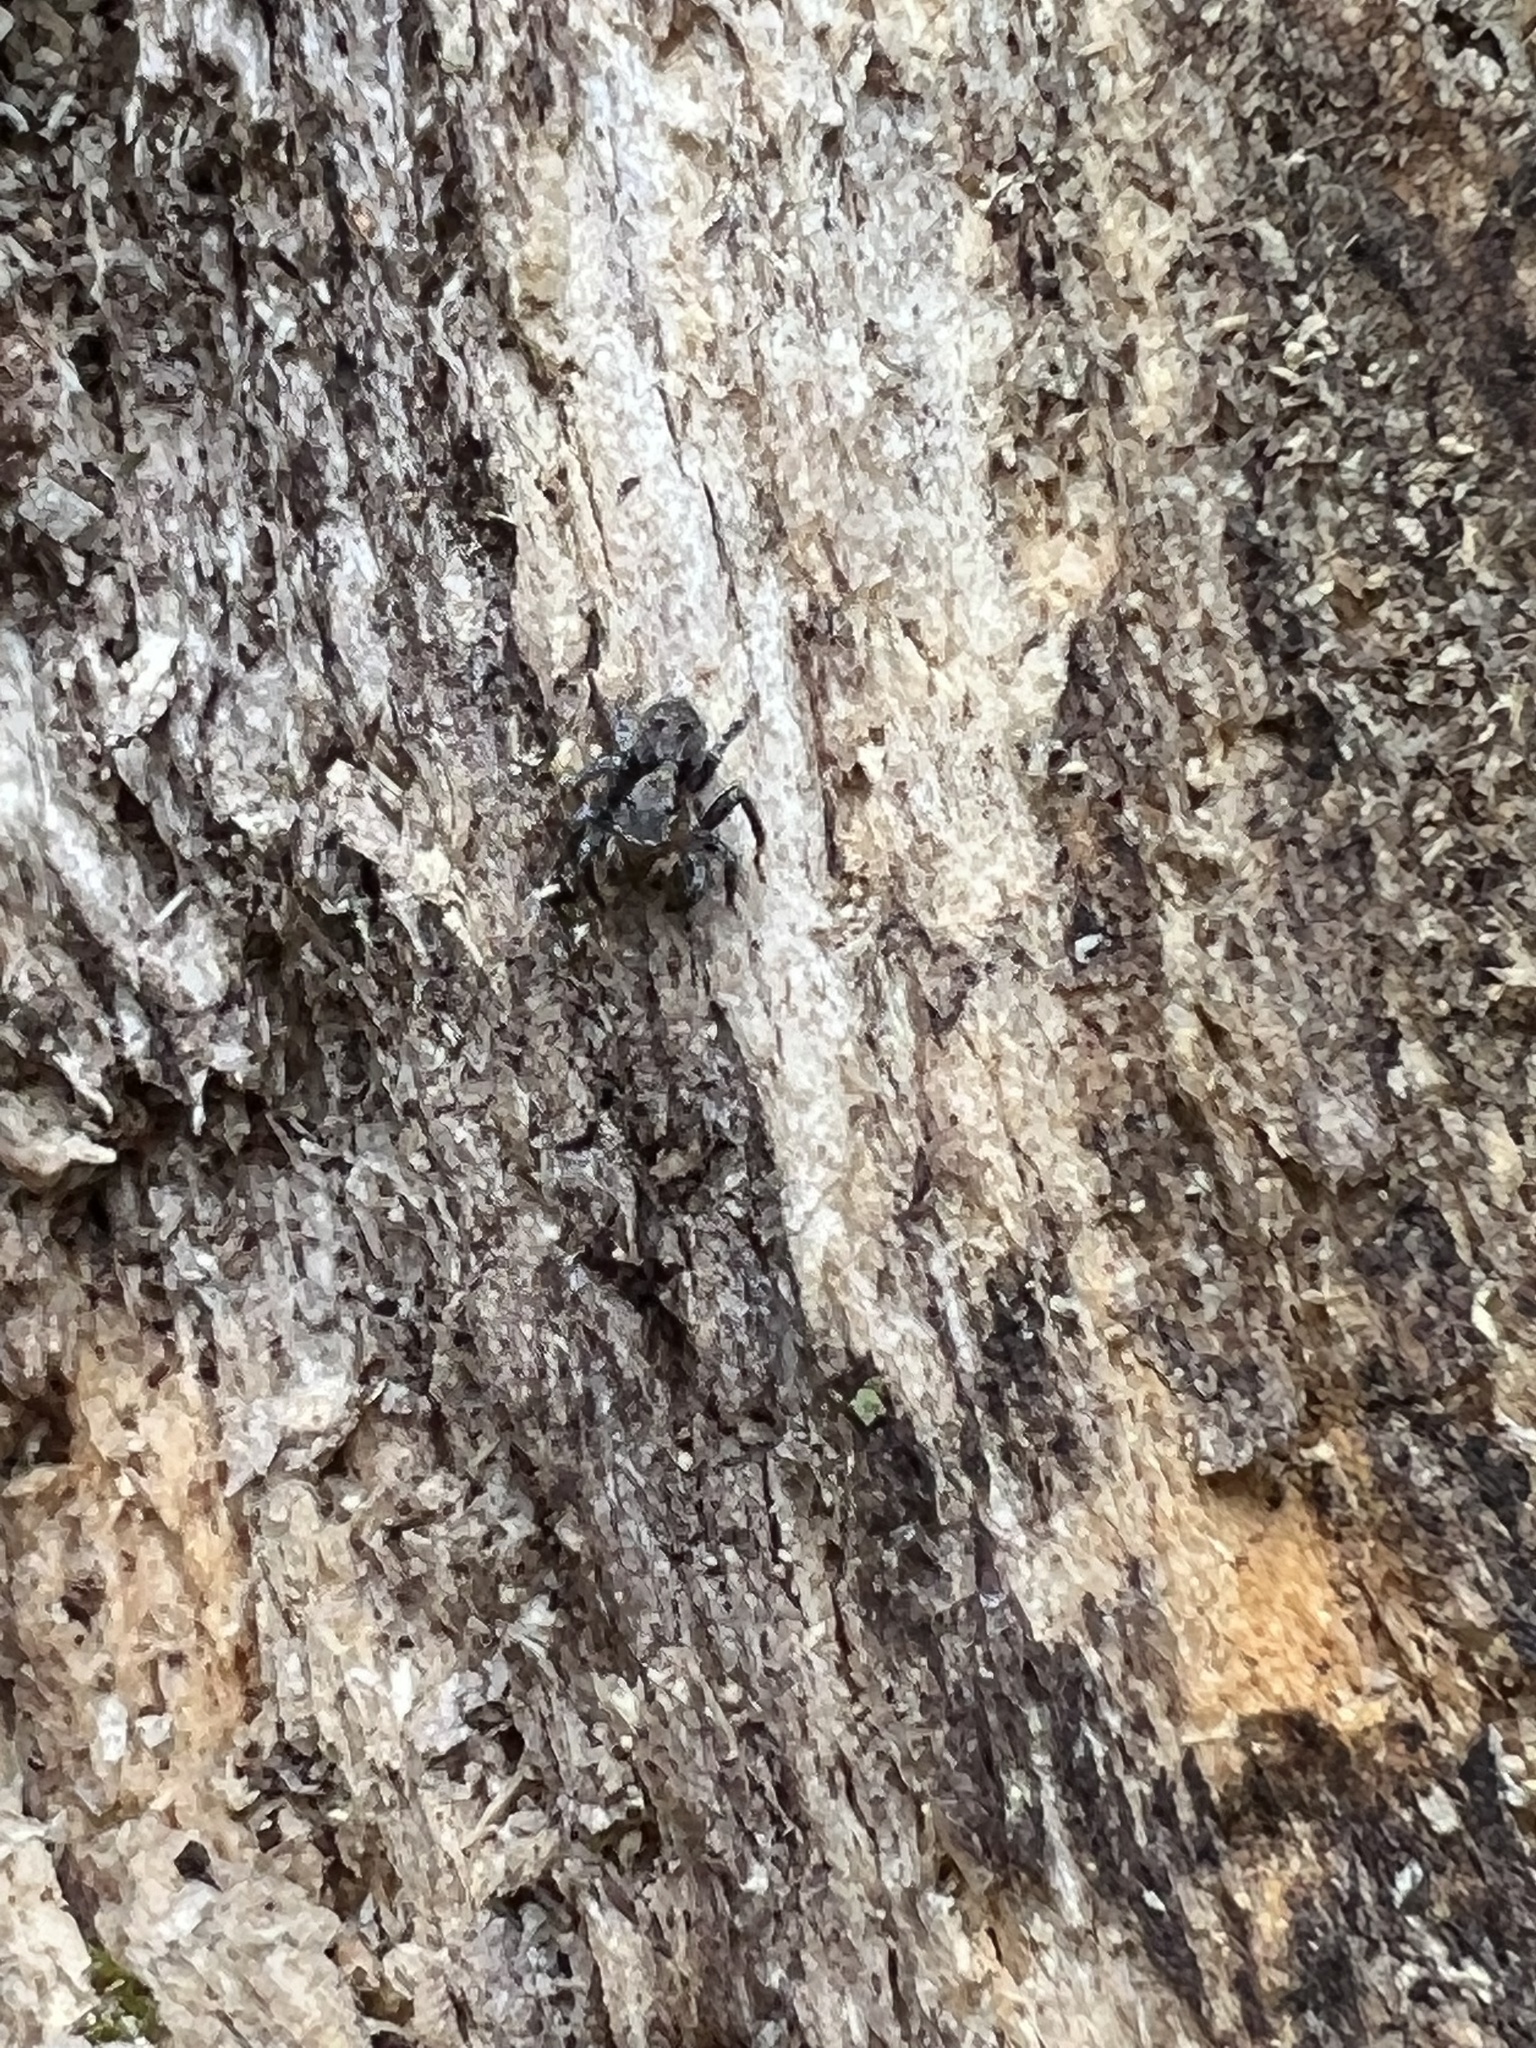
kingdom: Animalia
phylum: Arthropoda
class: Arachnida
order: Araneae
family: Salticidae
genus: Naphrys
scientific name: Naphrys pulex
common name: Flea jumping spider
